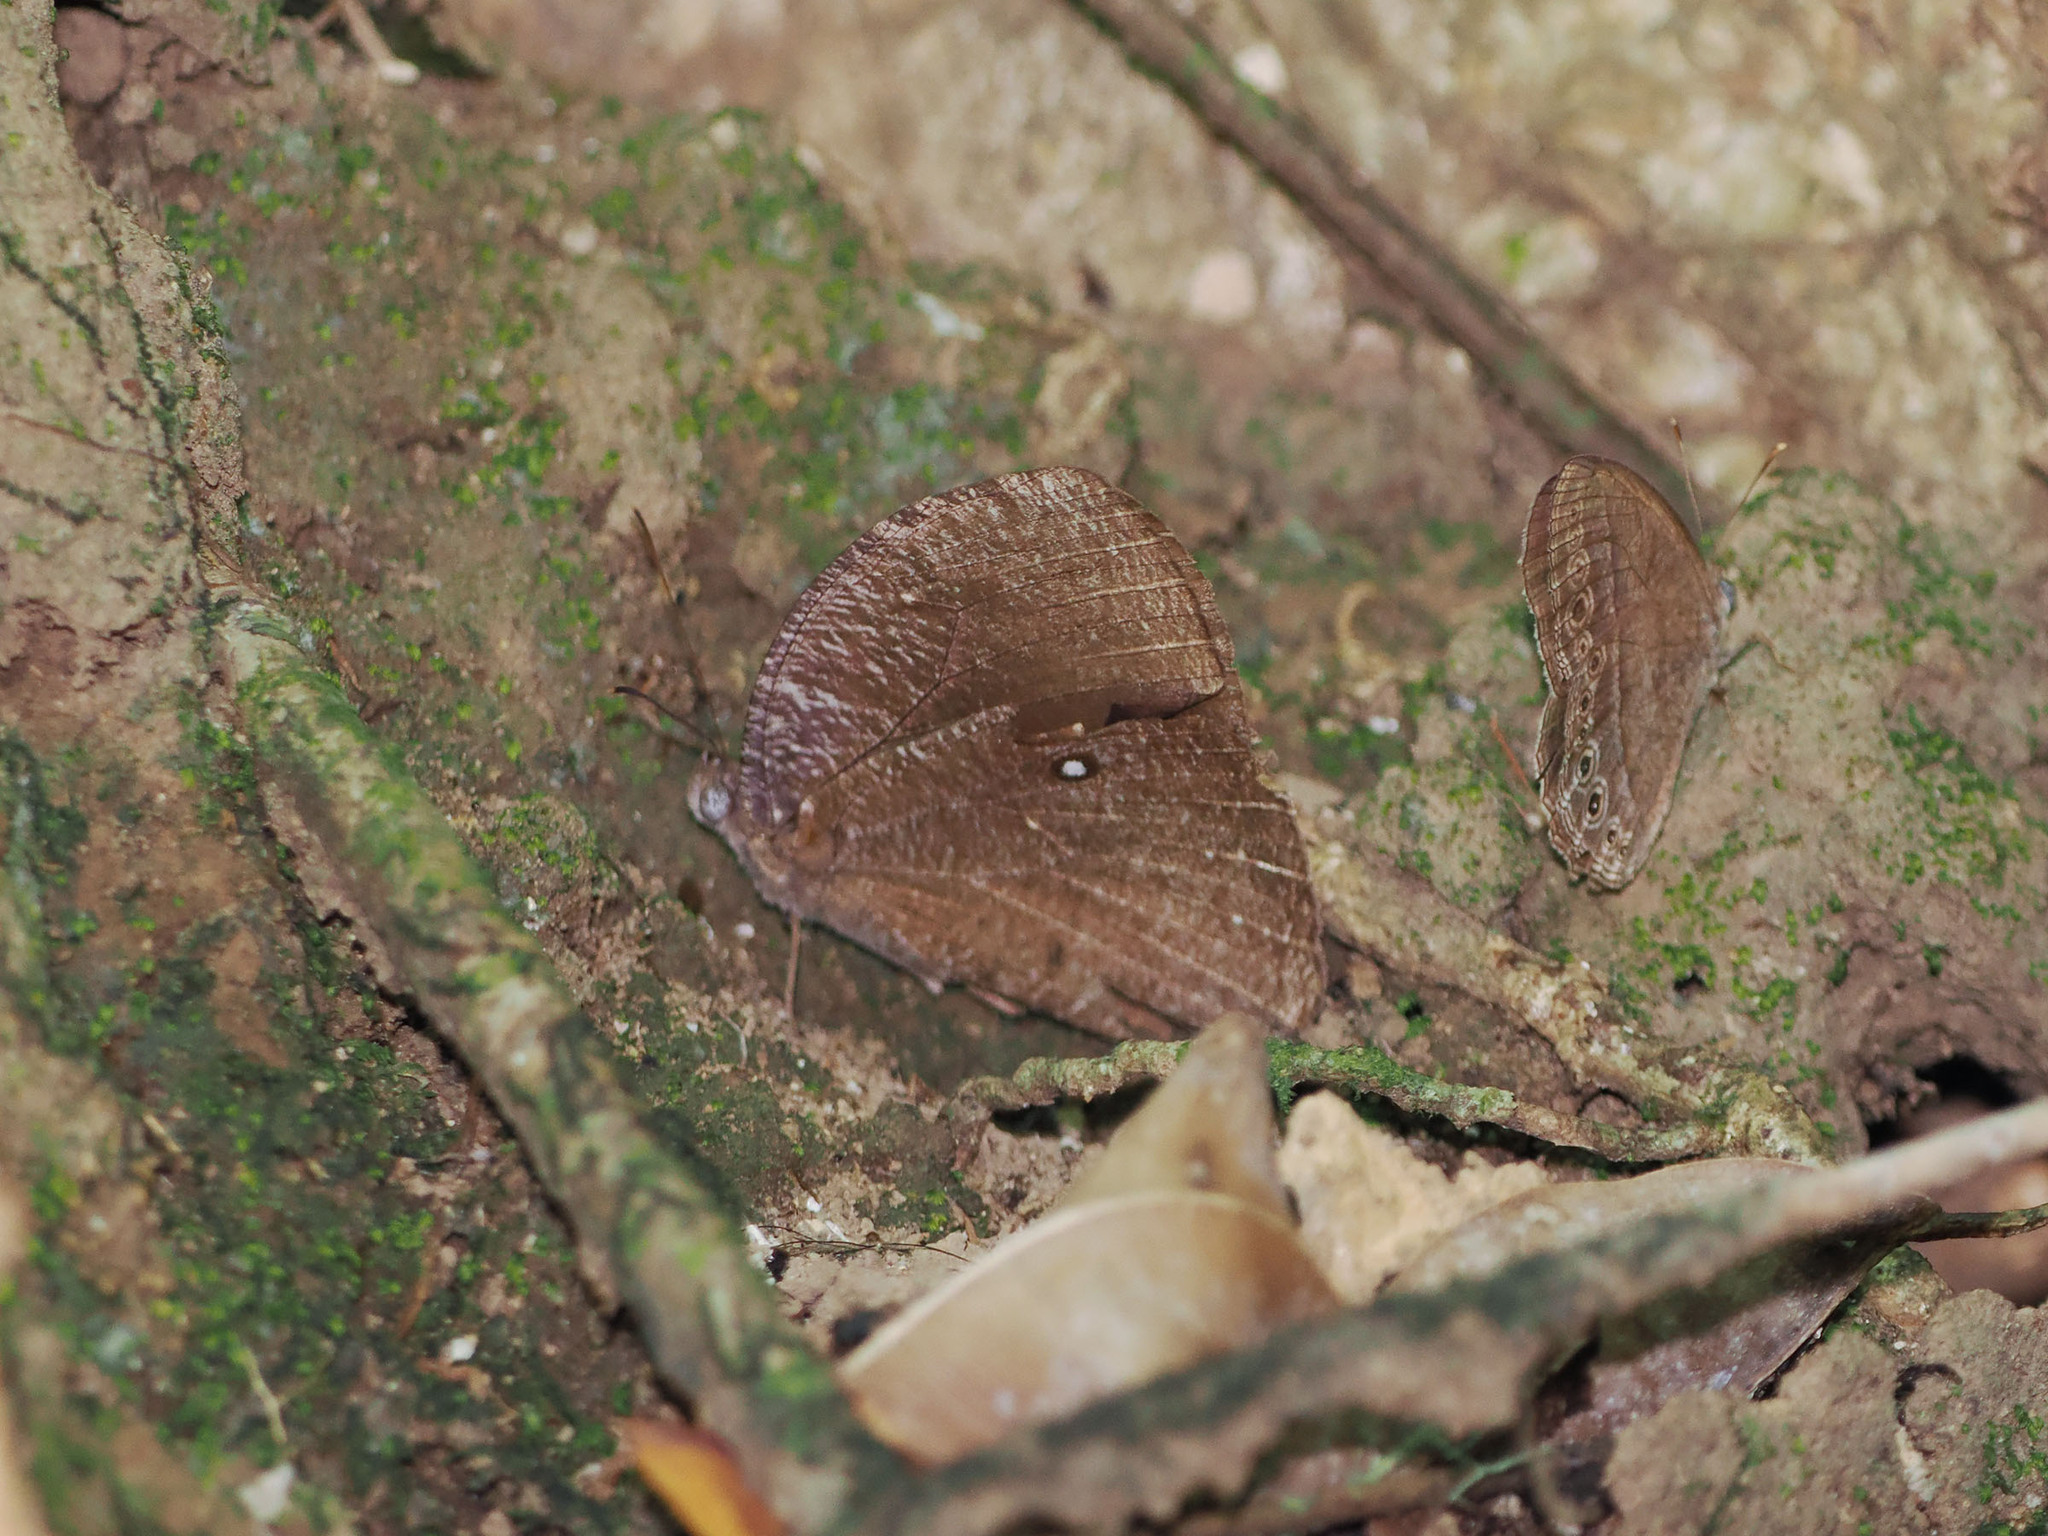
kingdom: Animalia
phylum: Arthropoda
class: Insecta
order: Lepidoptera
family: Nymphalidae
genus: Bletogona
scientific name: Bletogona mycalesis
